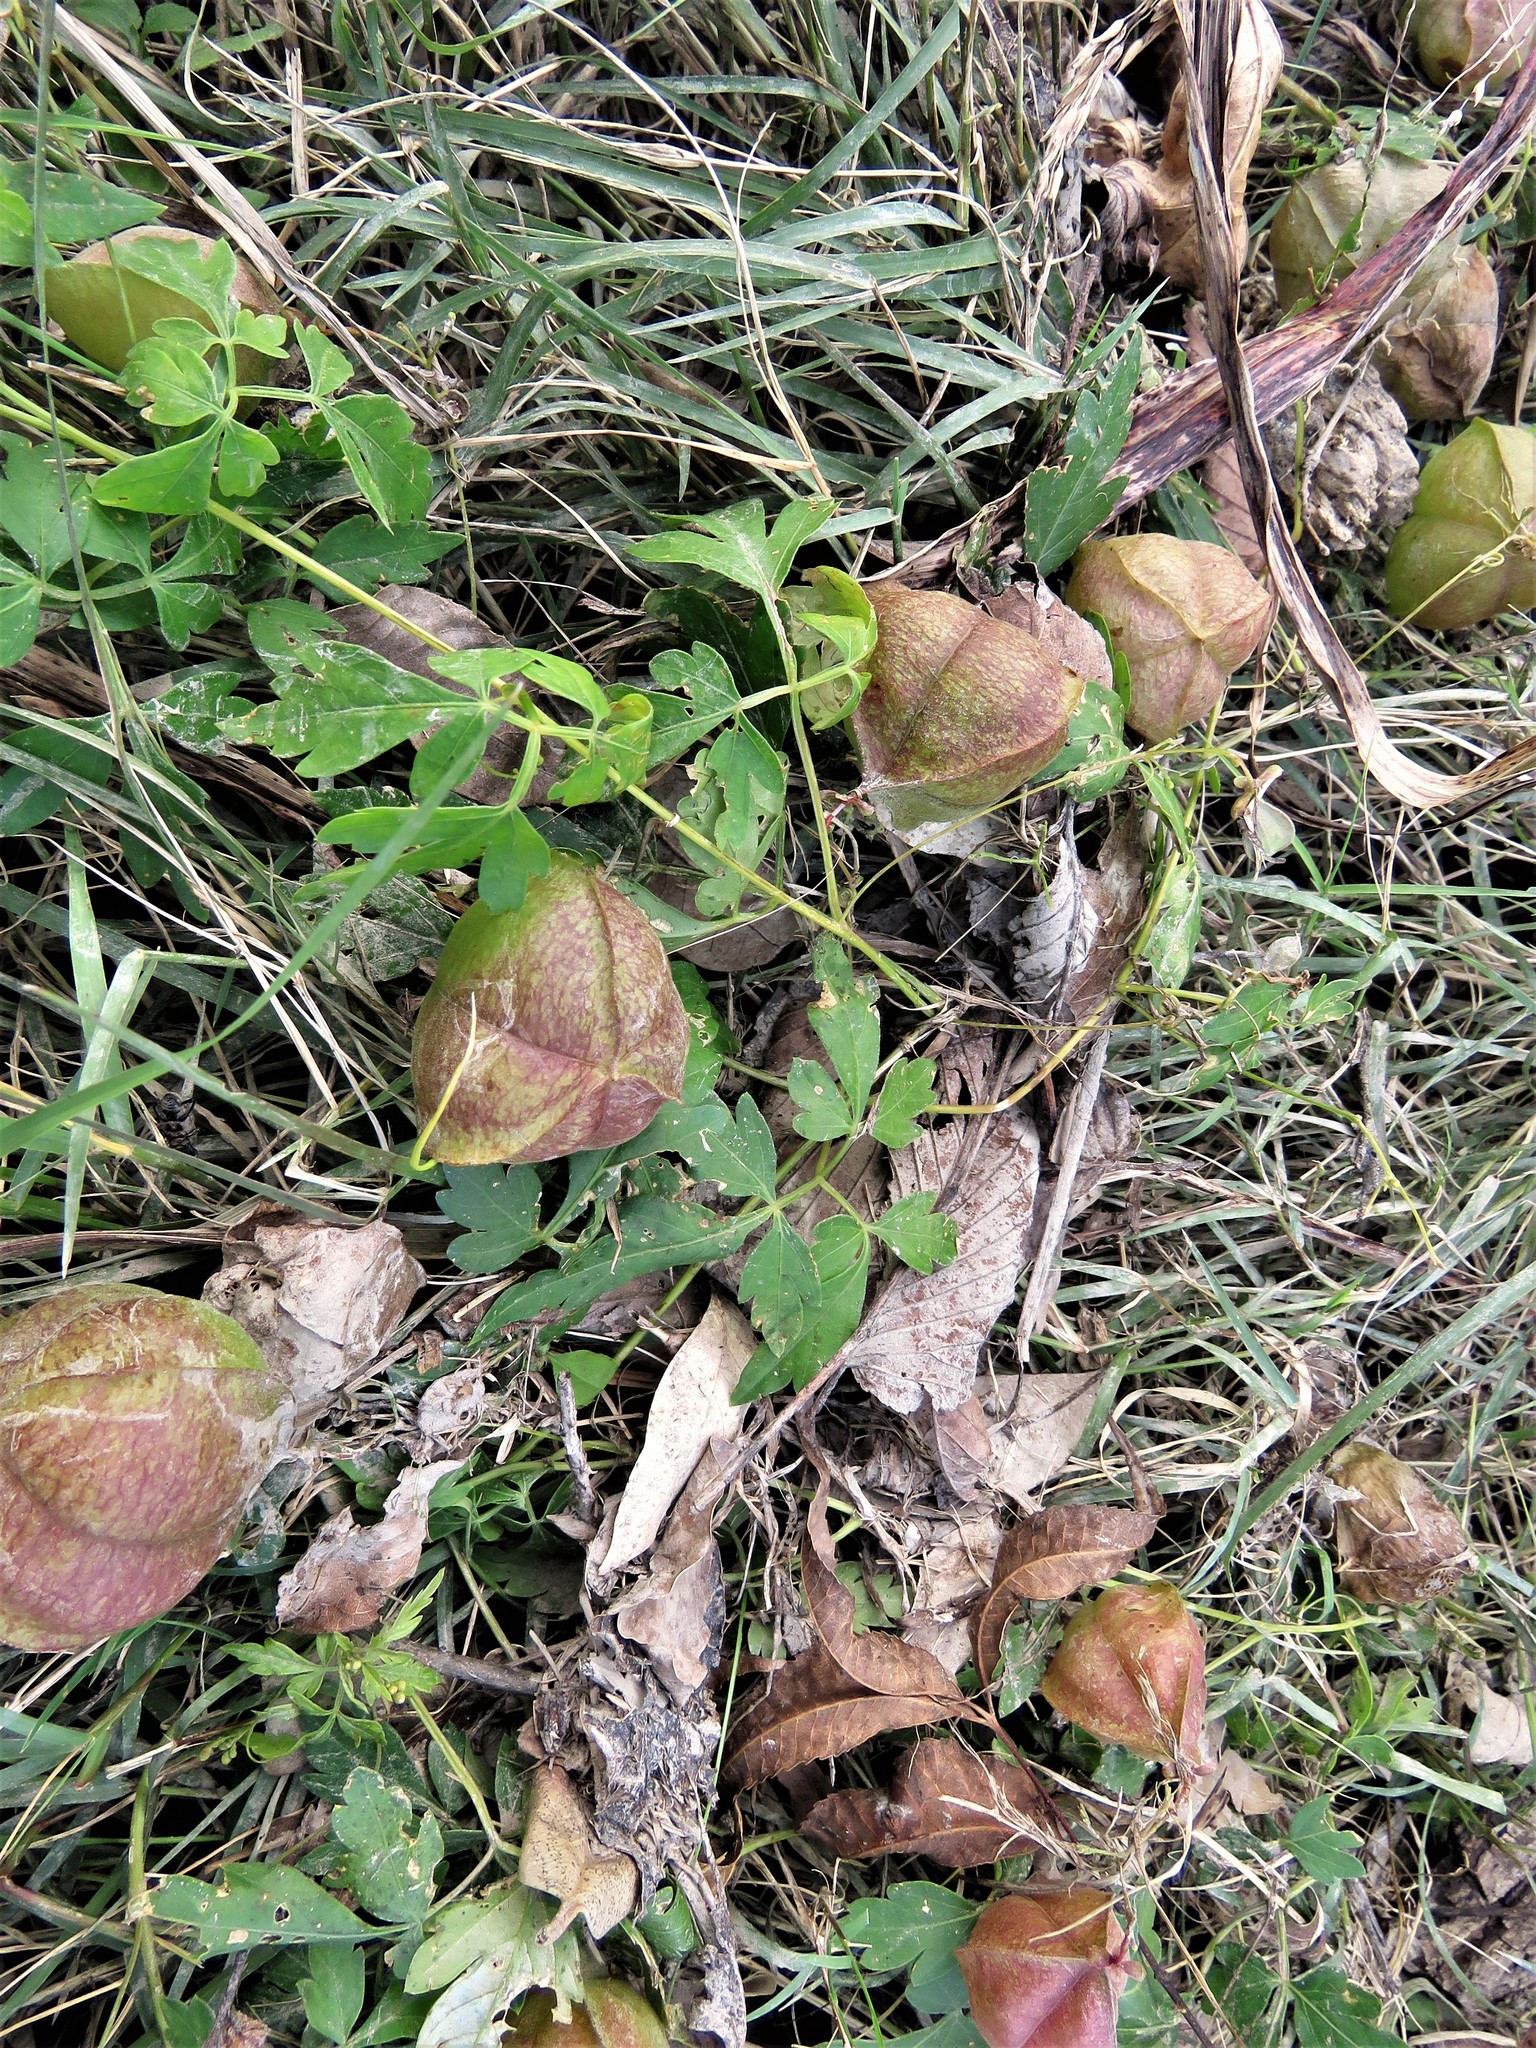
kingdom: Plantae
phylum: Tracheophyta
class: Magnoliopsida
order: Sapindales
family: Sapindaceae
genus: Cardiospermum
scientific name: Cardiospermum halicacabum
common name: Balloon vine
